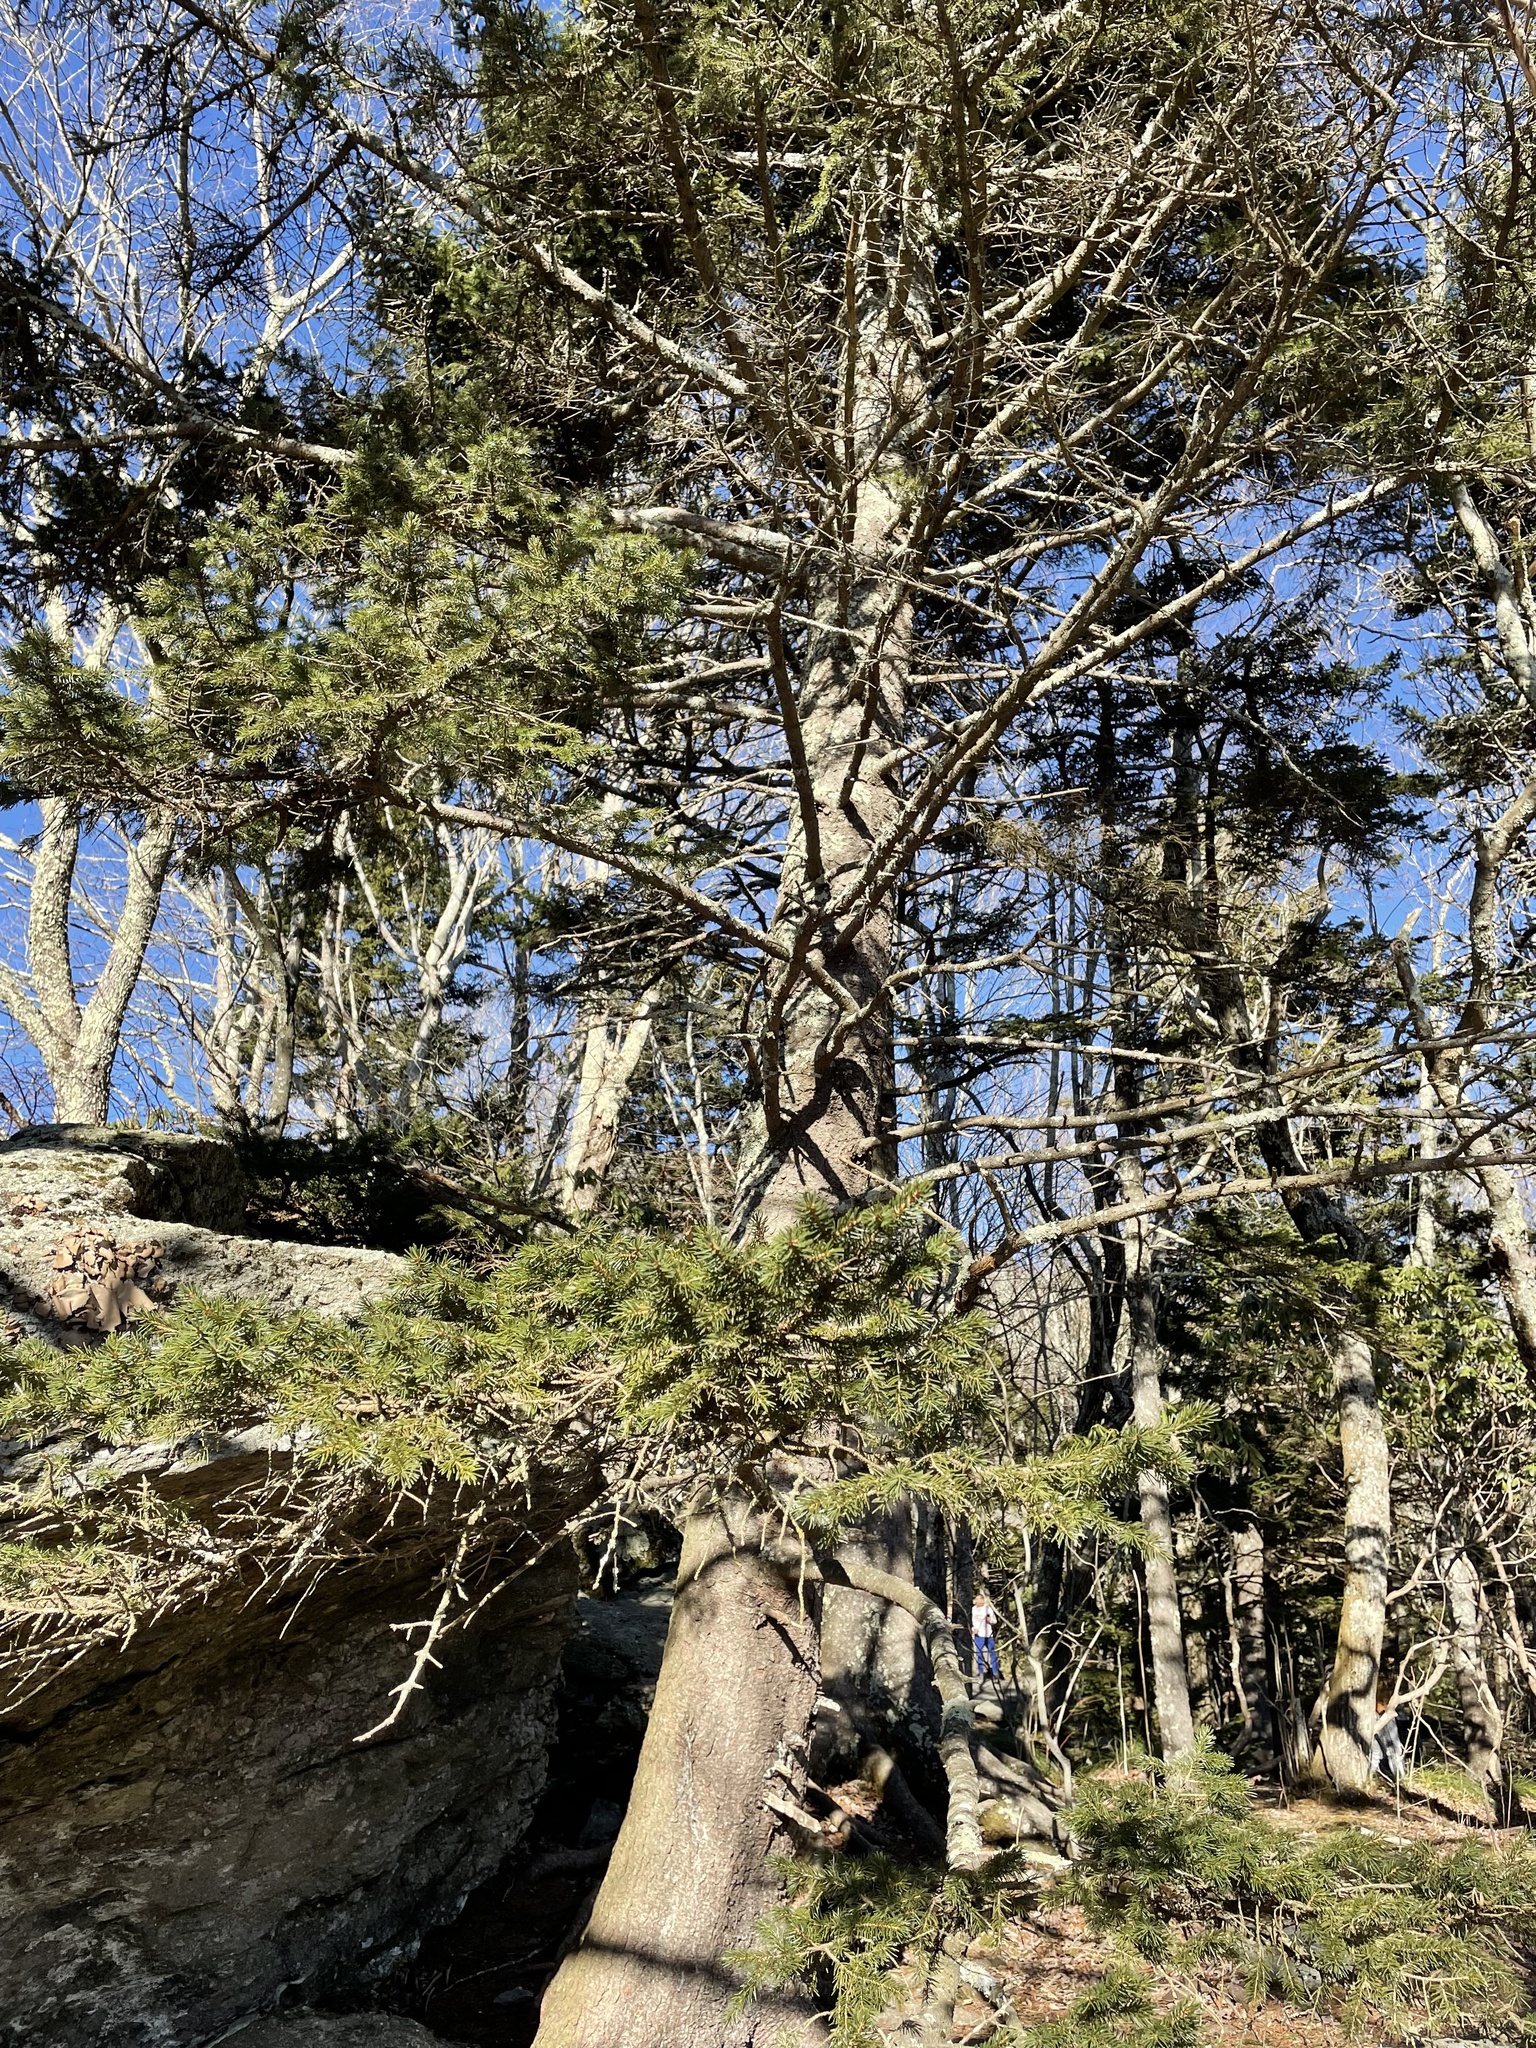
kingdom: Plantae
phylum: Tracheophyta
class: Pinopsida
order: Pinales
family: Pinaceae
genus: Picea
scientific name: Picea rubens
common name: Red spruce
